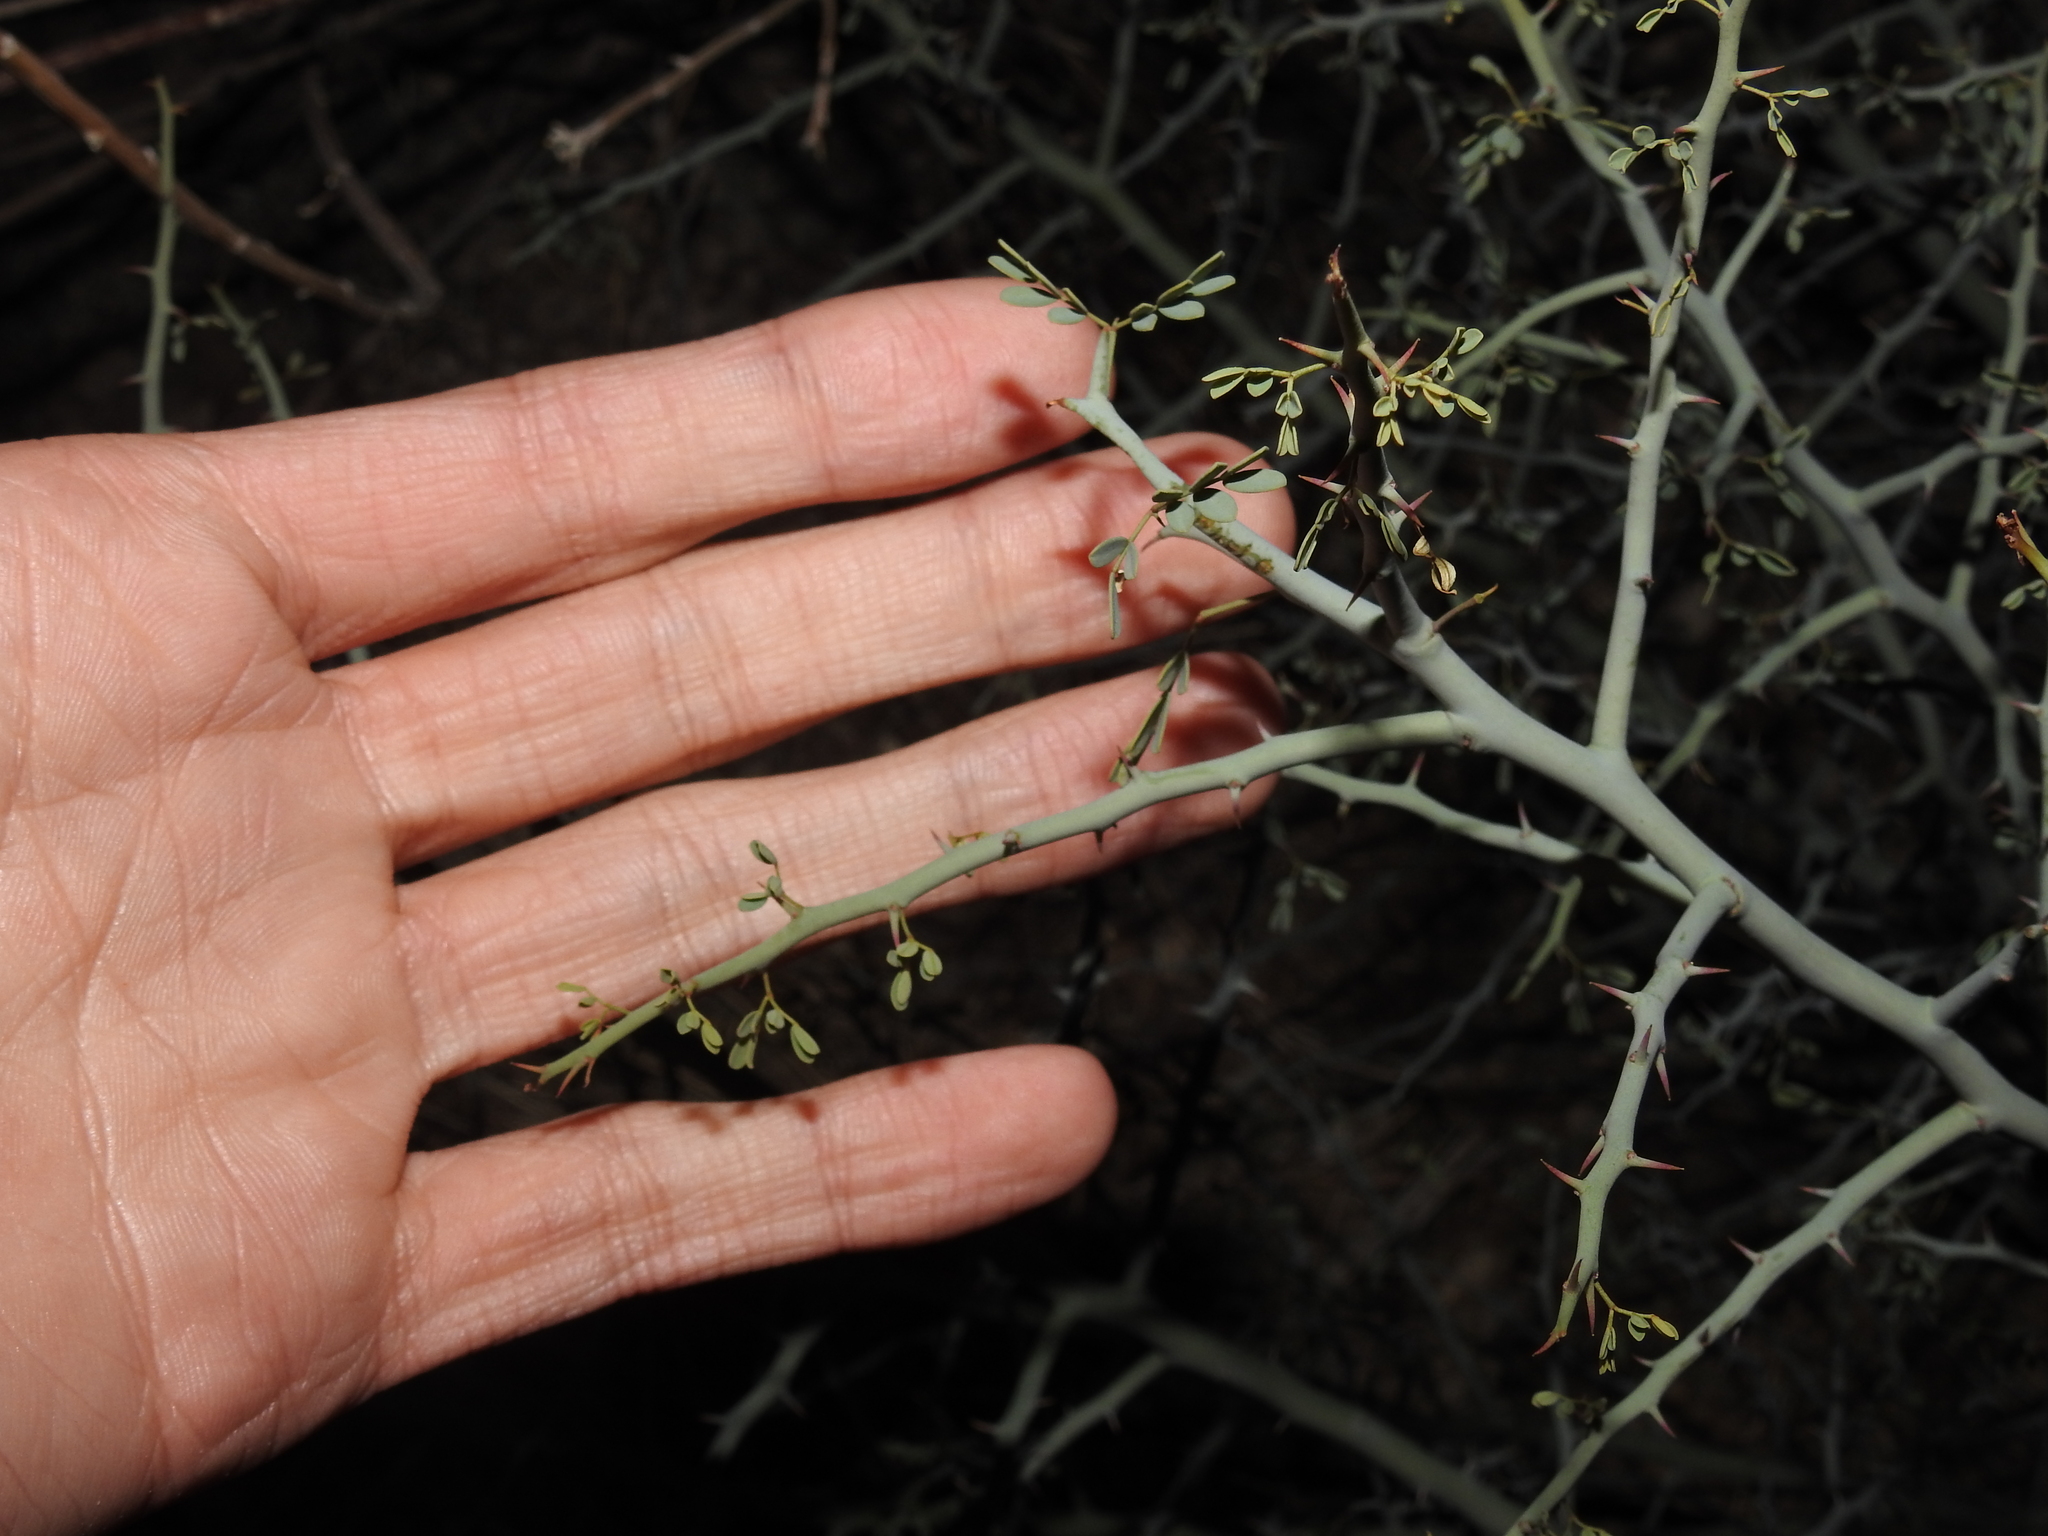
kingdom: Plantae
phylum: Tracheophyta
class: Magnoliopsida
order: Fabales
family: Fabaceae
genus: Parkinsonia
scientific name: Parkinsonia florida
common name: Blue paloverde
